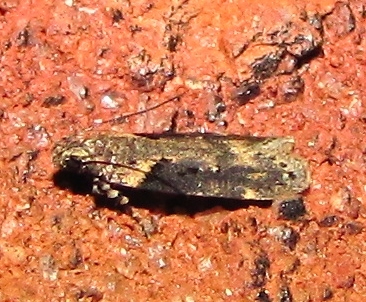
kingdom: Animalia
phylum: Arthropoda
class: Insecta
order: Lepidoptera
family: Gelechiidae
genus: Chionodes
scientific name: Chionodes mediofuscella
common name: Black-smudged chionodes moth
